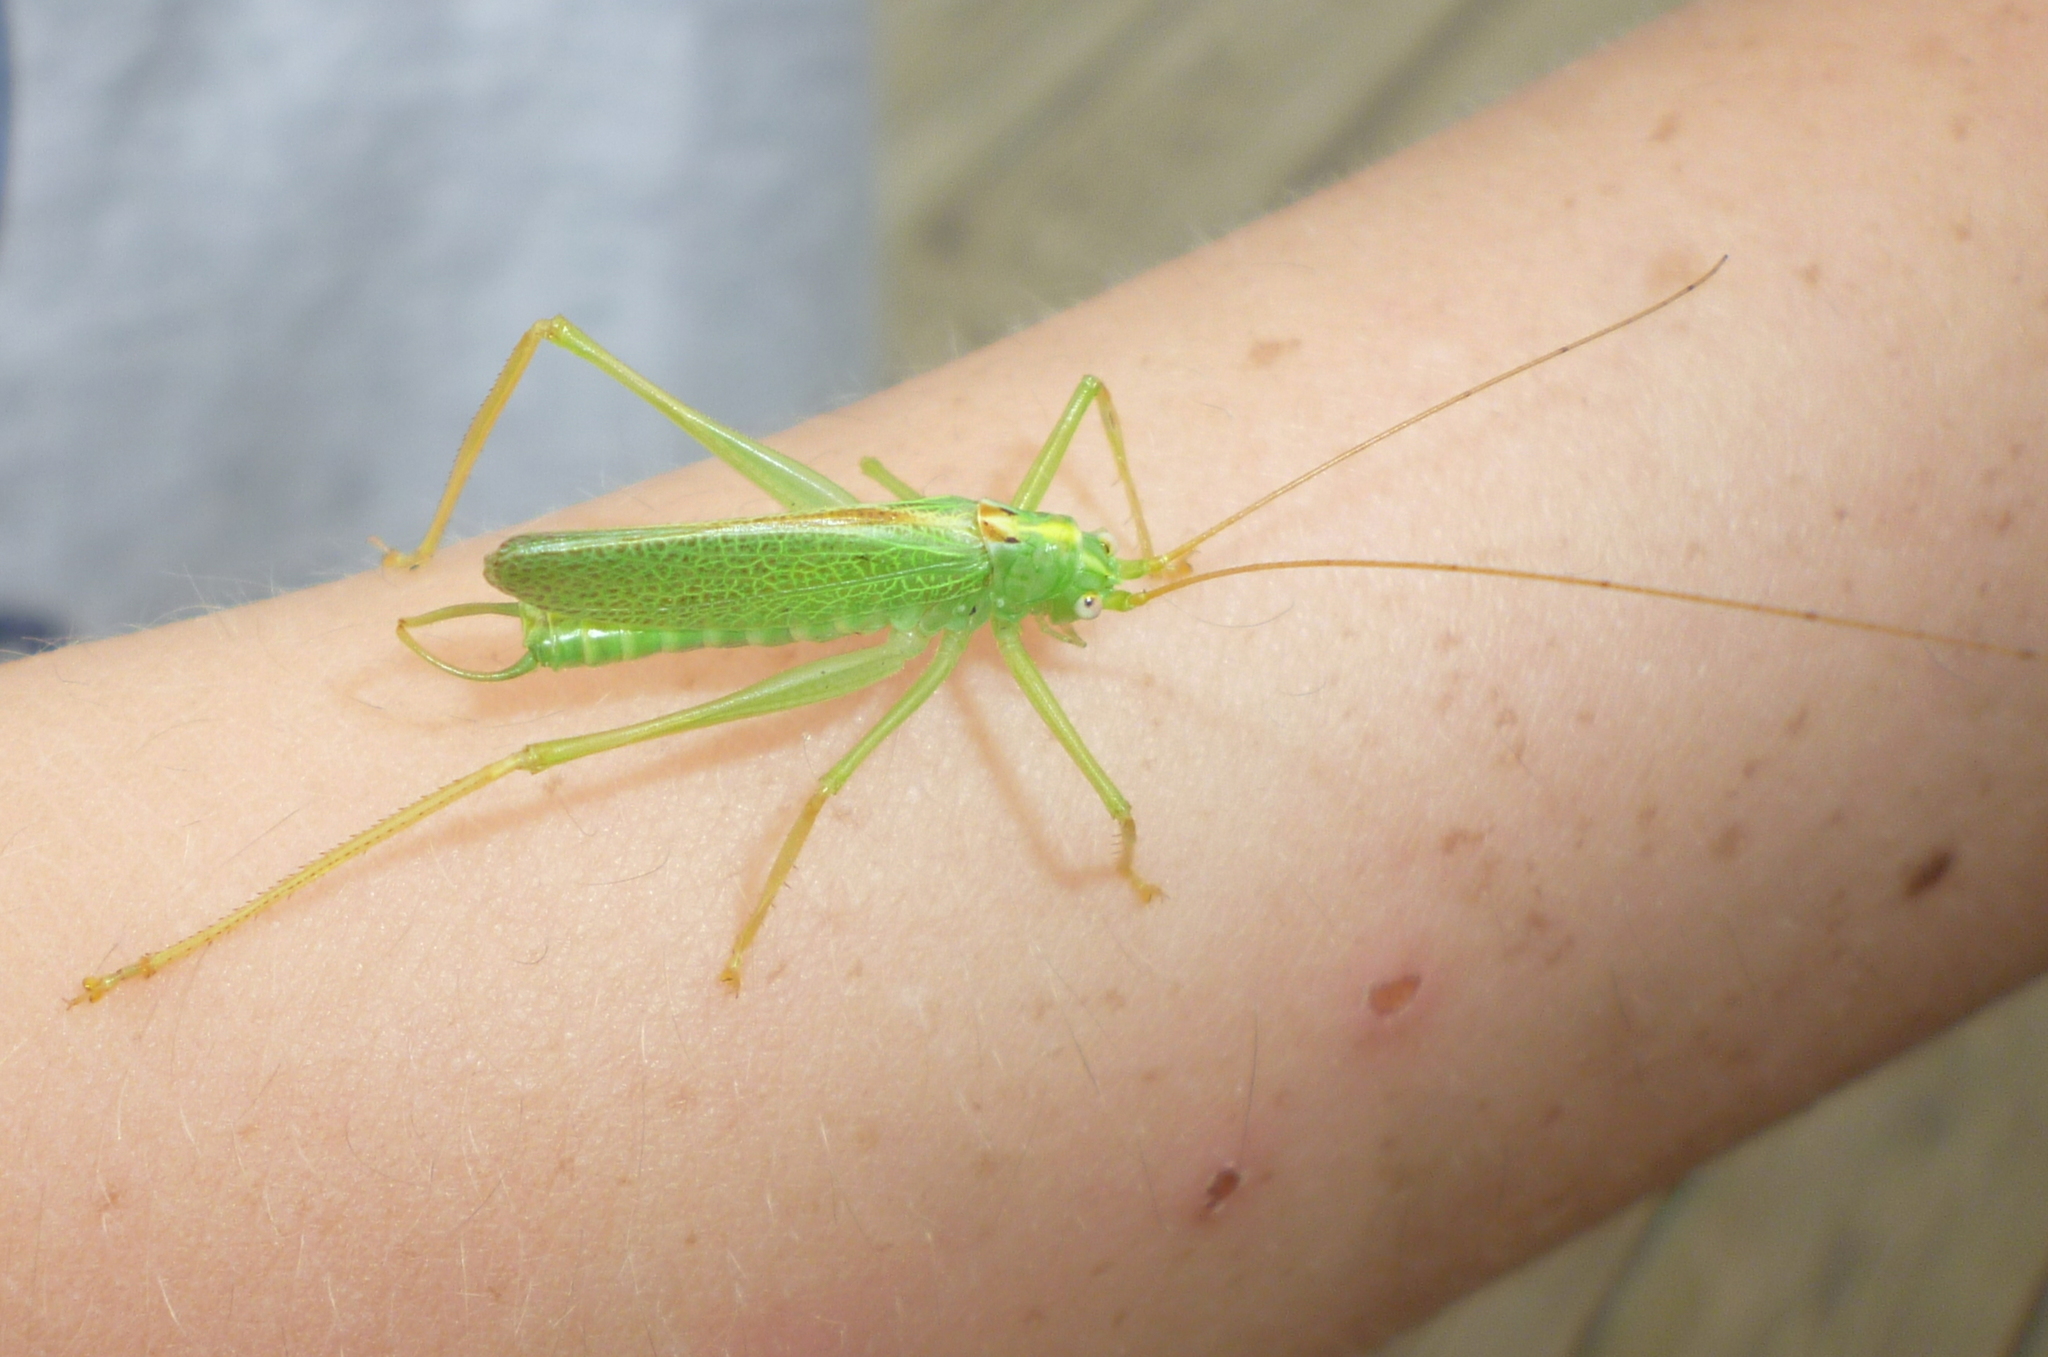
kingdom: Animalia
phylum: Arthropoda
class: Insecta
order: Orthoptera
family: Tettigoniidae
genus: Meconema
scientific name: Meconema thalassinum
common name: Oak bush-cricket
